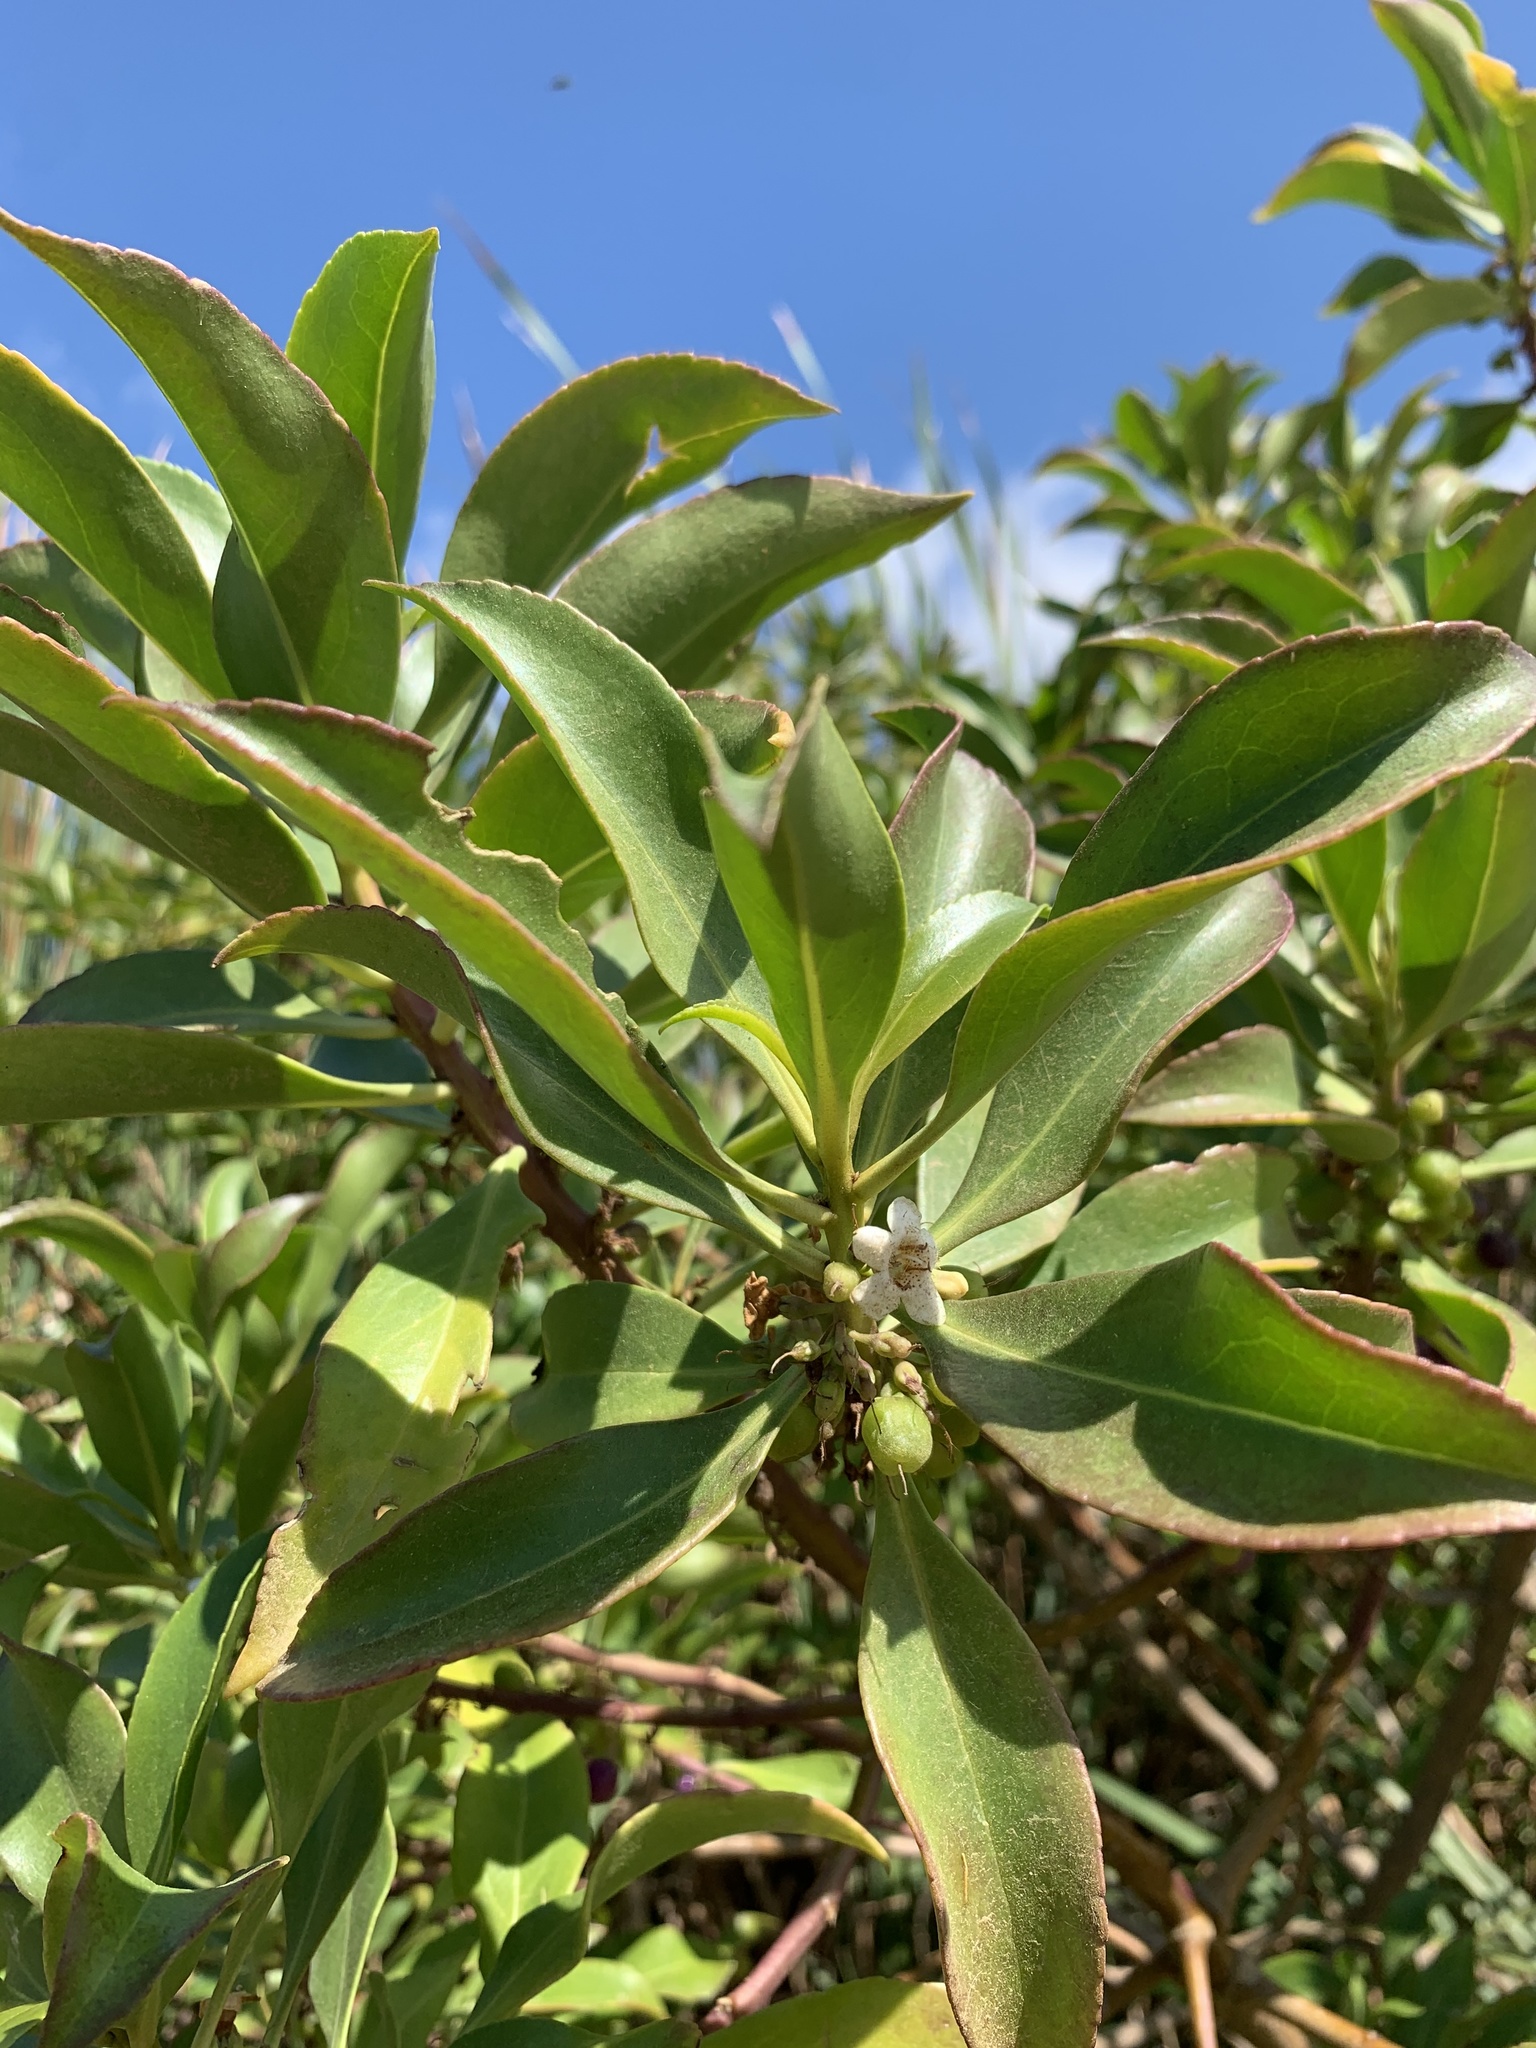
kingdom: Plantae
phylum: Tracheophyta
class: Magnoliopsida
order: Lamiales
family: Scrophulariaceae
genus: Myoporum
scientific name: Myoporum insulare
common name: Common boobialla
